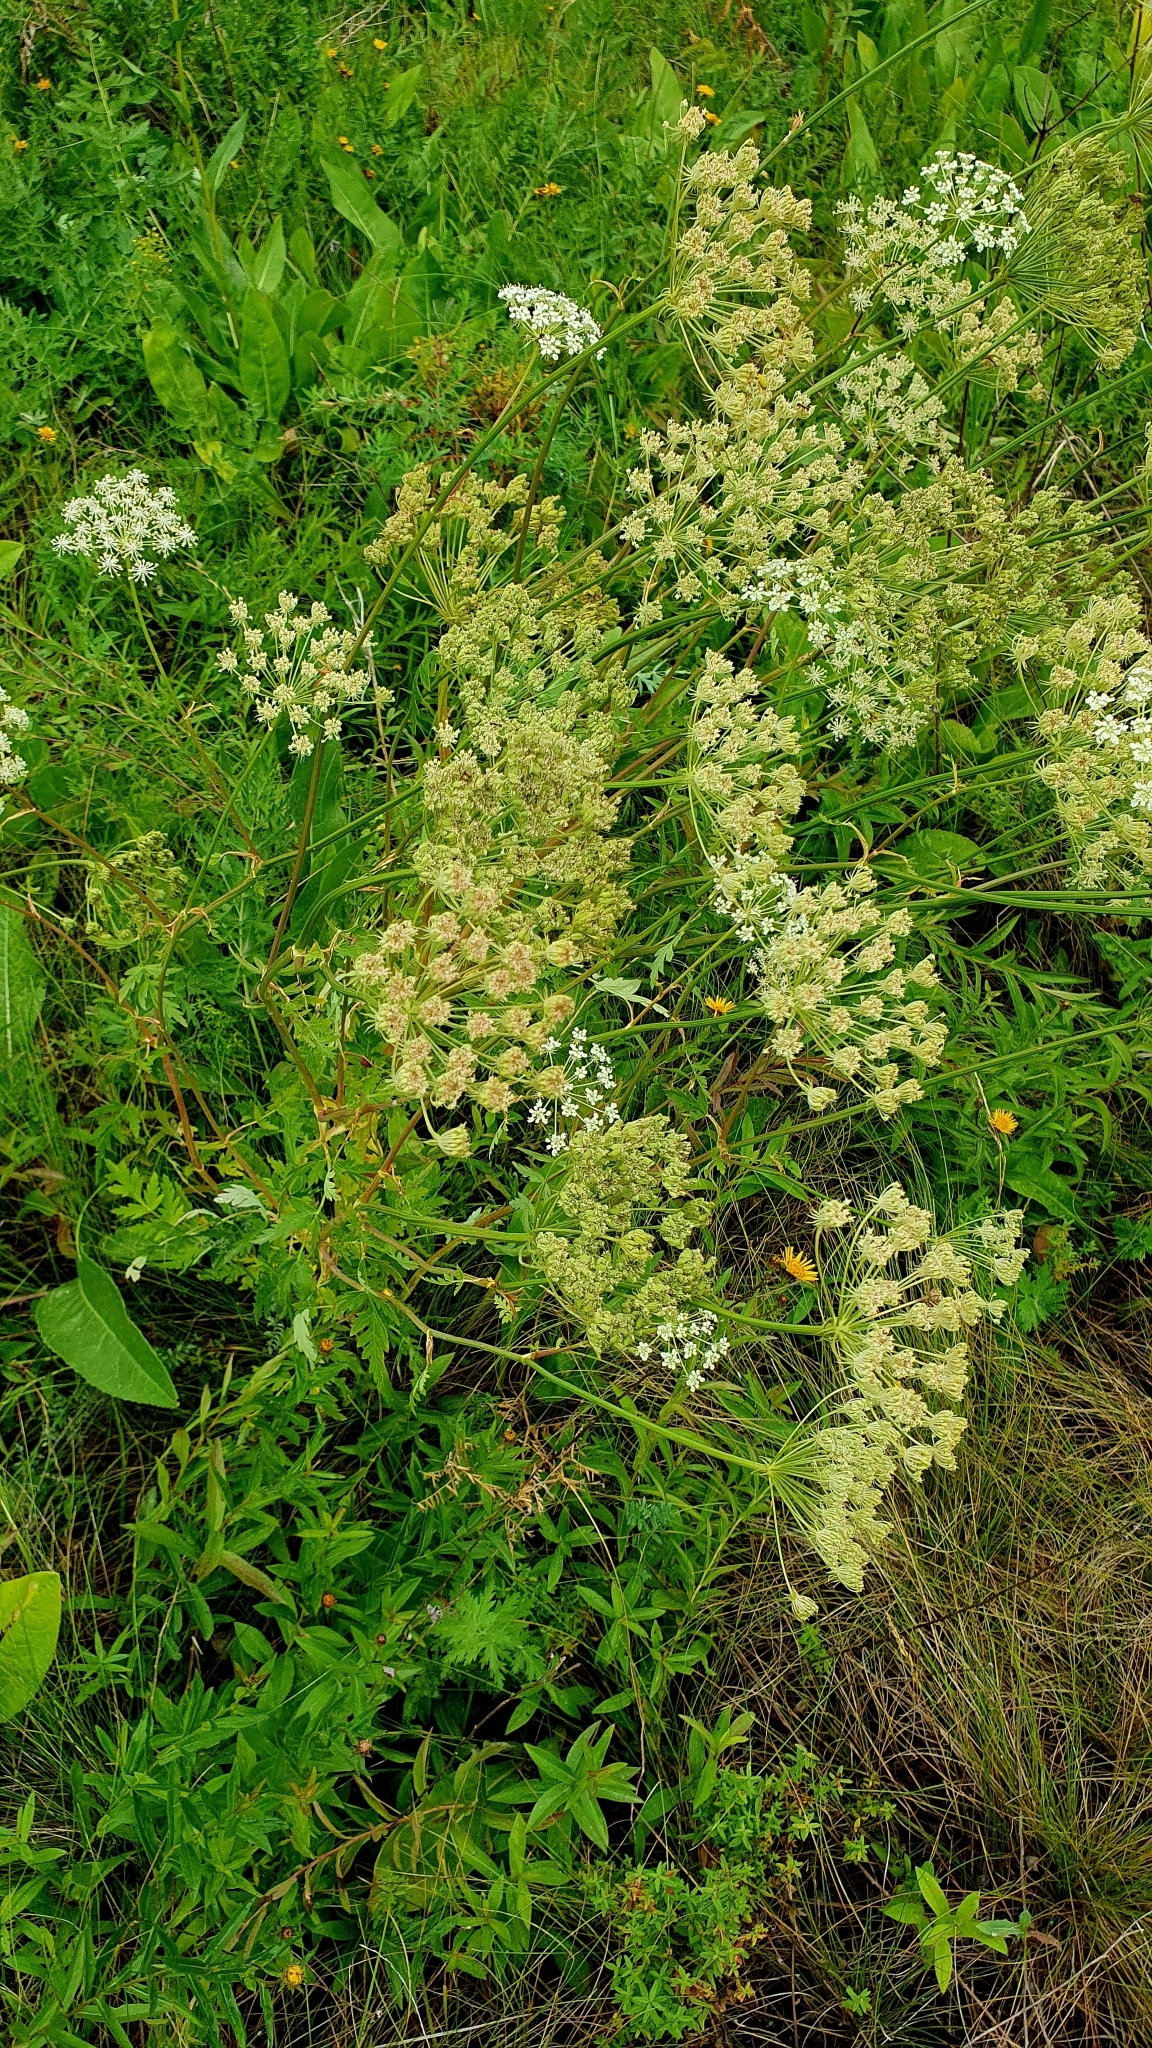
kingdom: Plantae
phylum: Tracheophyta
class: Magnoliopsida
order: Apiales
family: Apiaceae
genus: Seseli
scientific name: Seseli libanotis
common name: Mooncarrot
